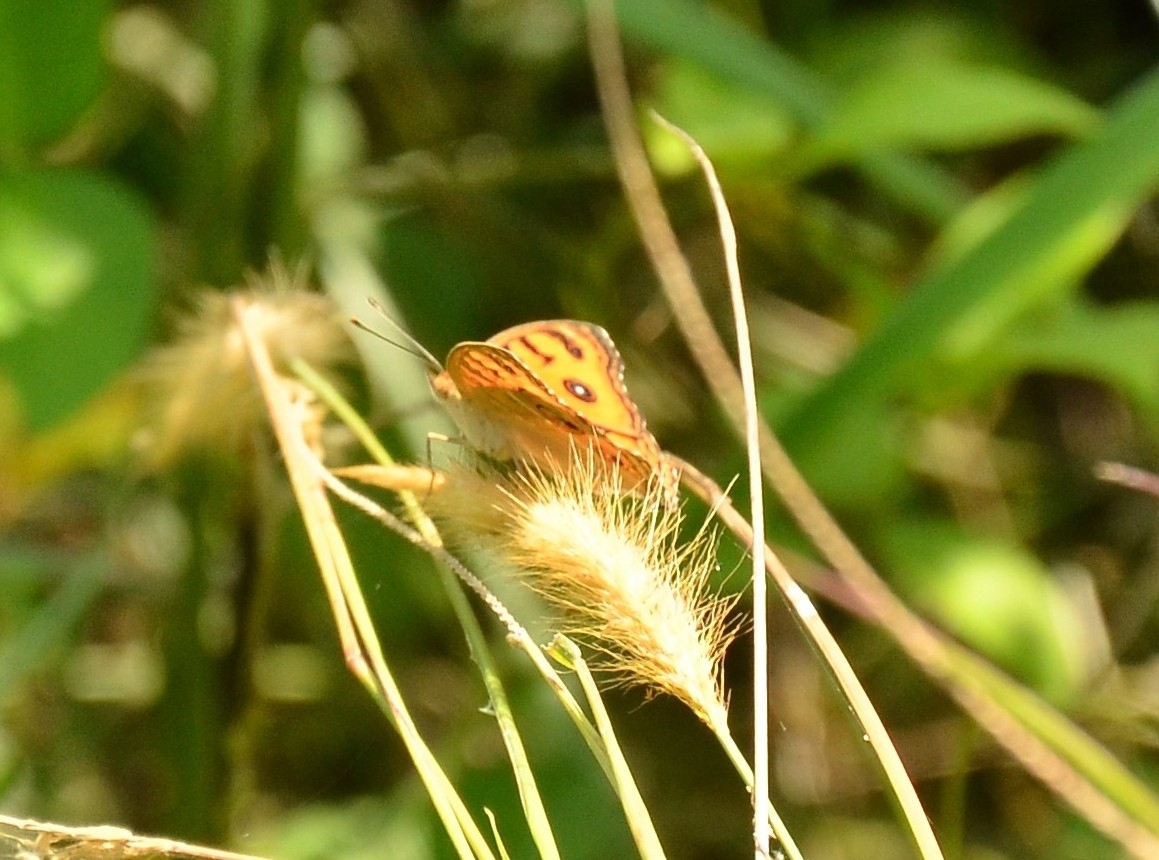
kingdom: Animalia
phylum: Arthropoda
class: Insecta
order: Lepidoptera
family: Nymphalidae
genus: Junonia
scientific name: Junonia almana
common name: Peacock pansy
